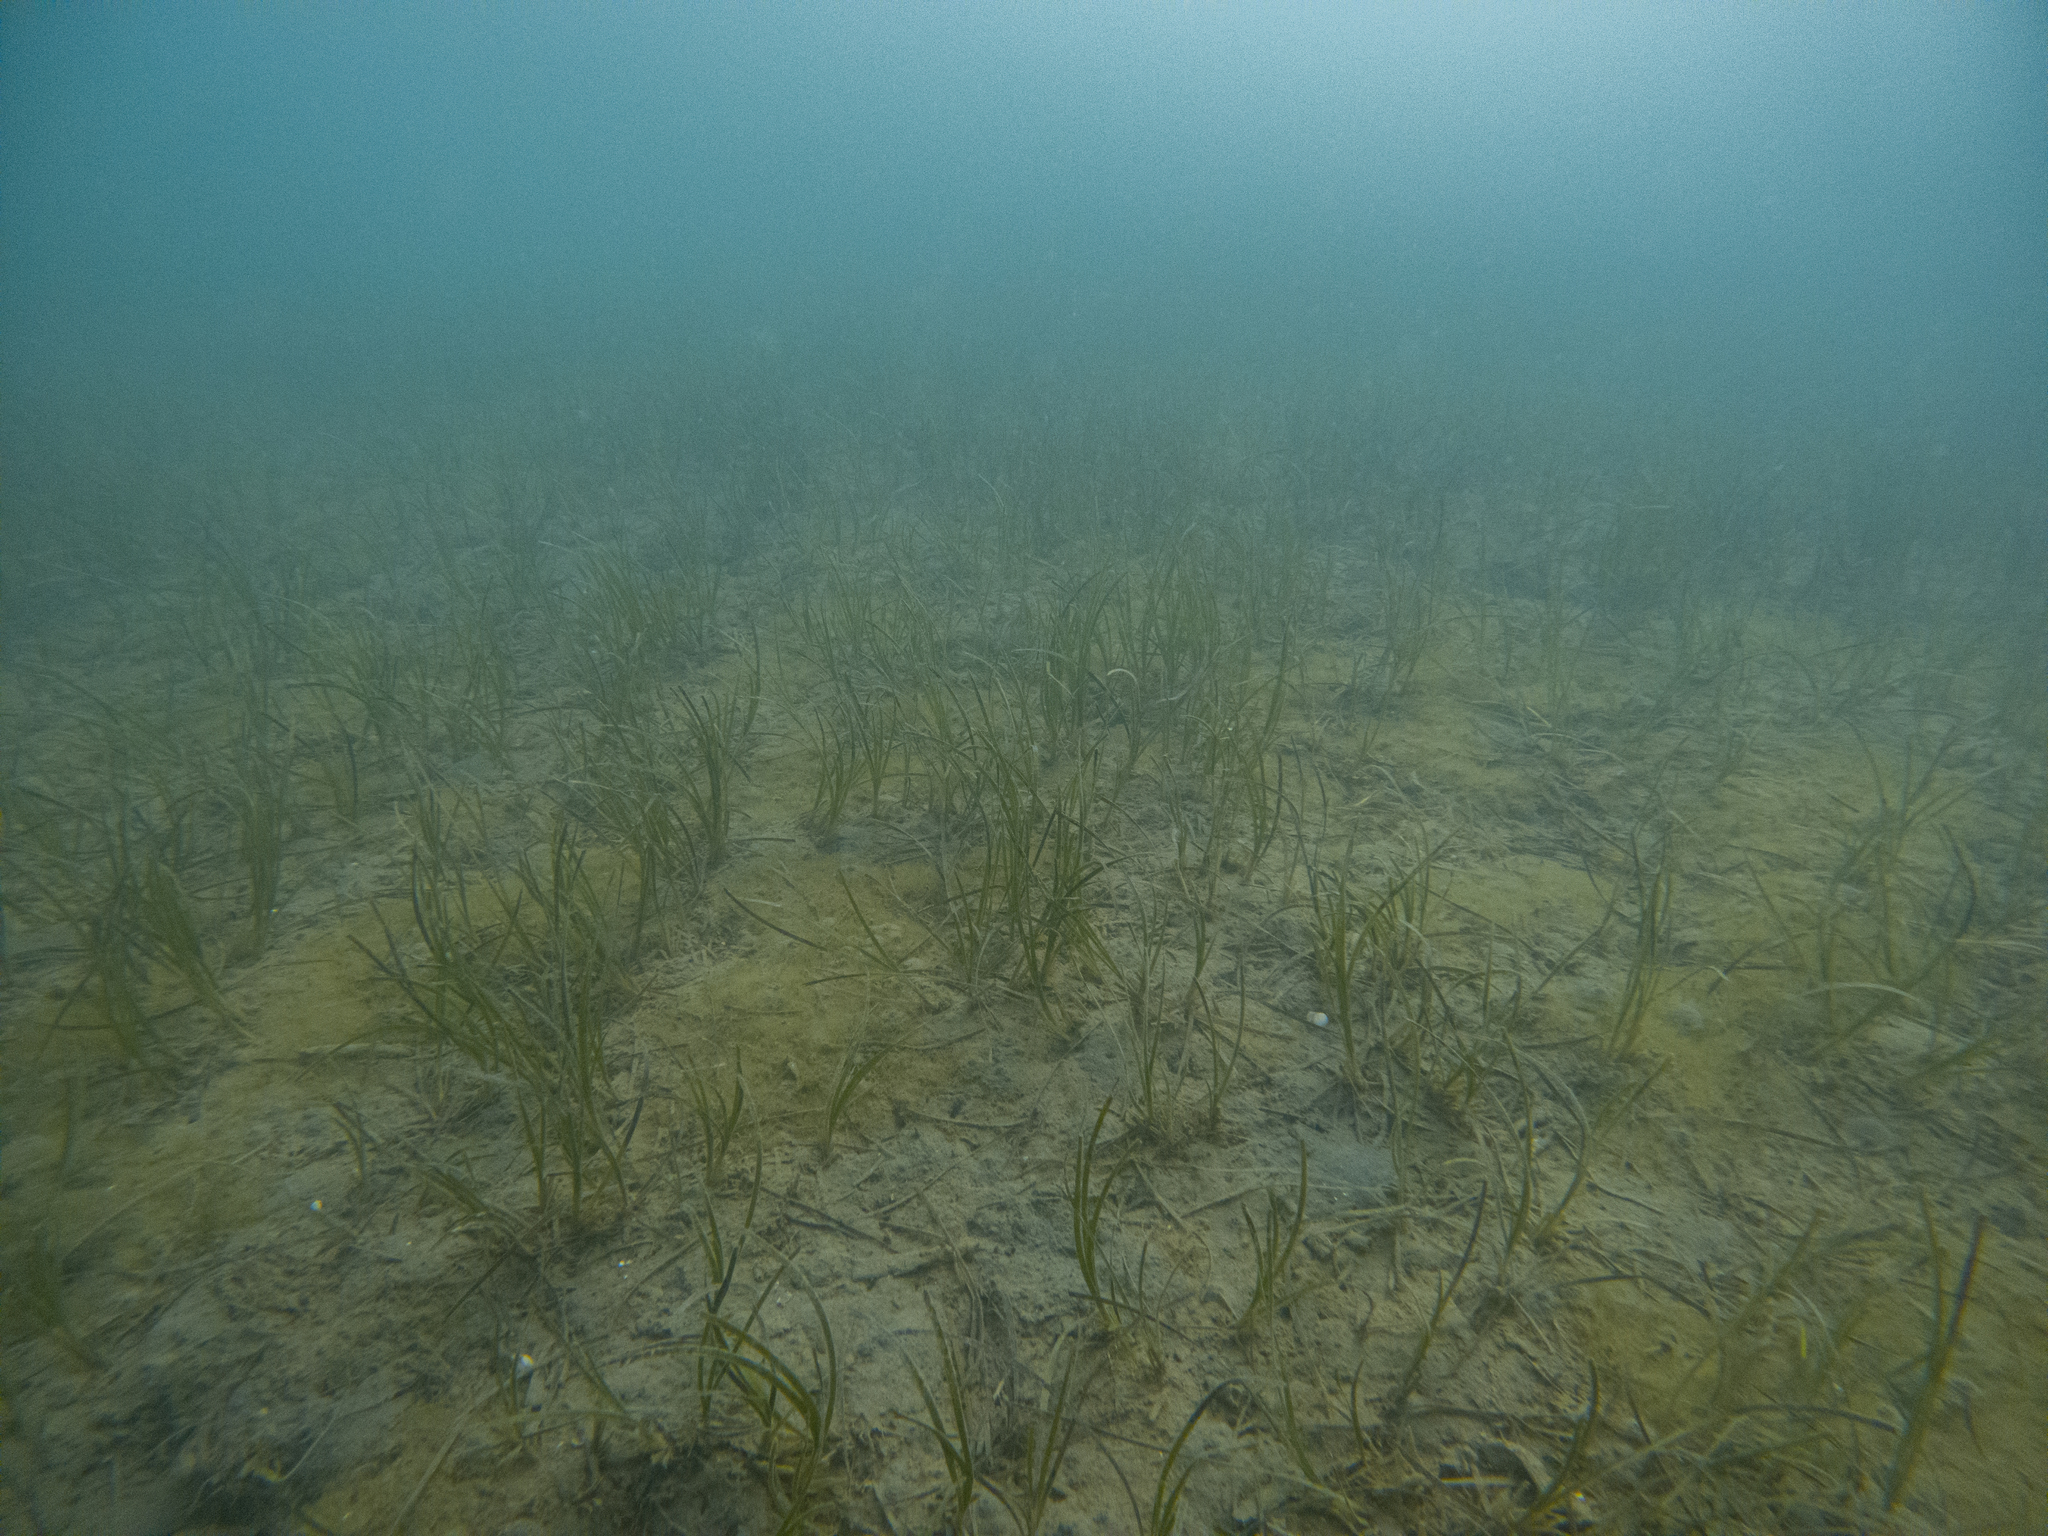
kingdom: Plantae
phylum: Tracheophyta
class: Liliopsida
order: Alismatales
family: Zosteraceae
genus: Zostera
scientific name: Zostera novazelandica
